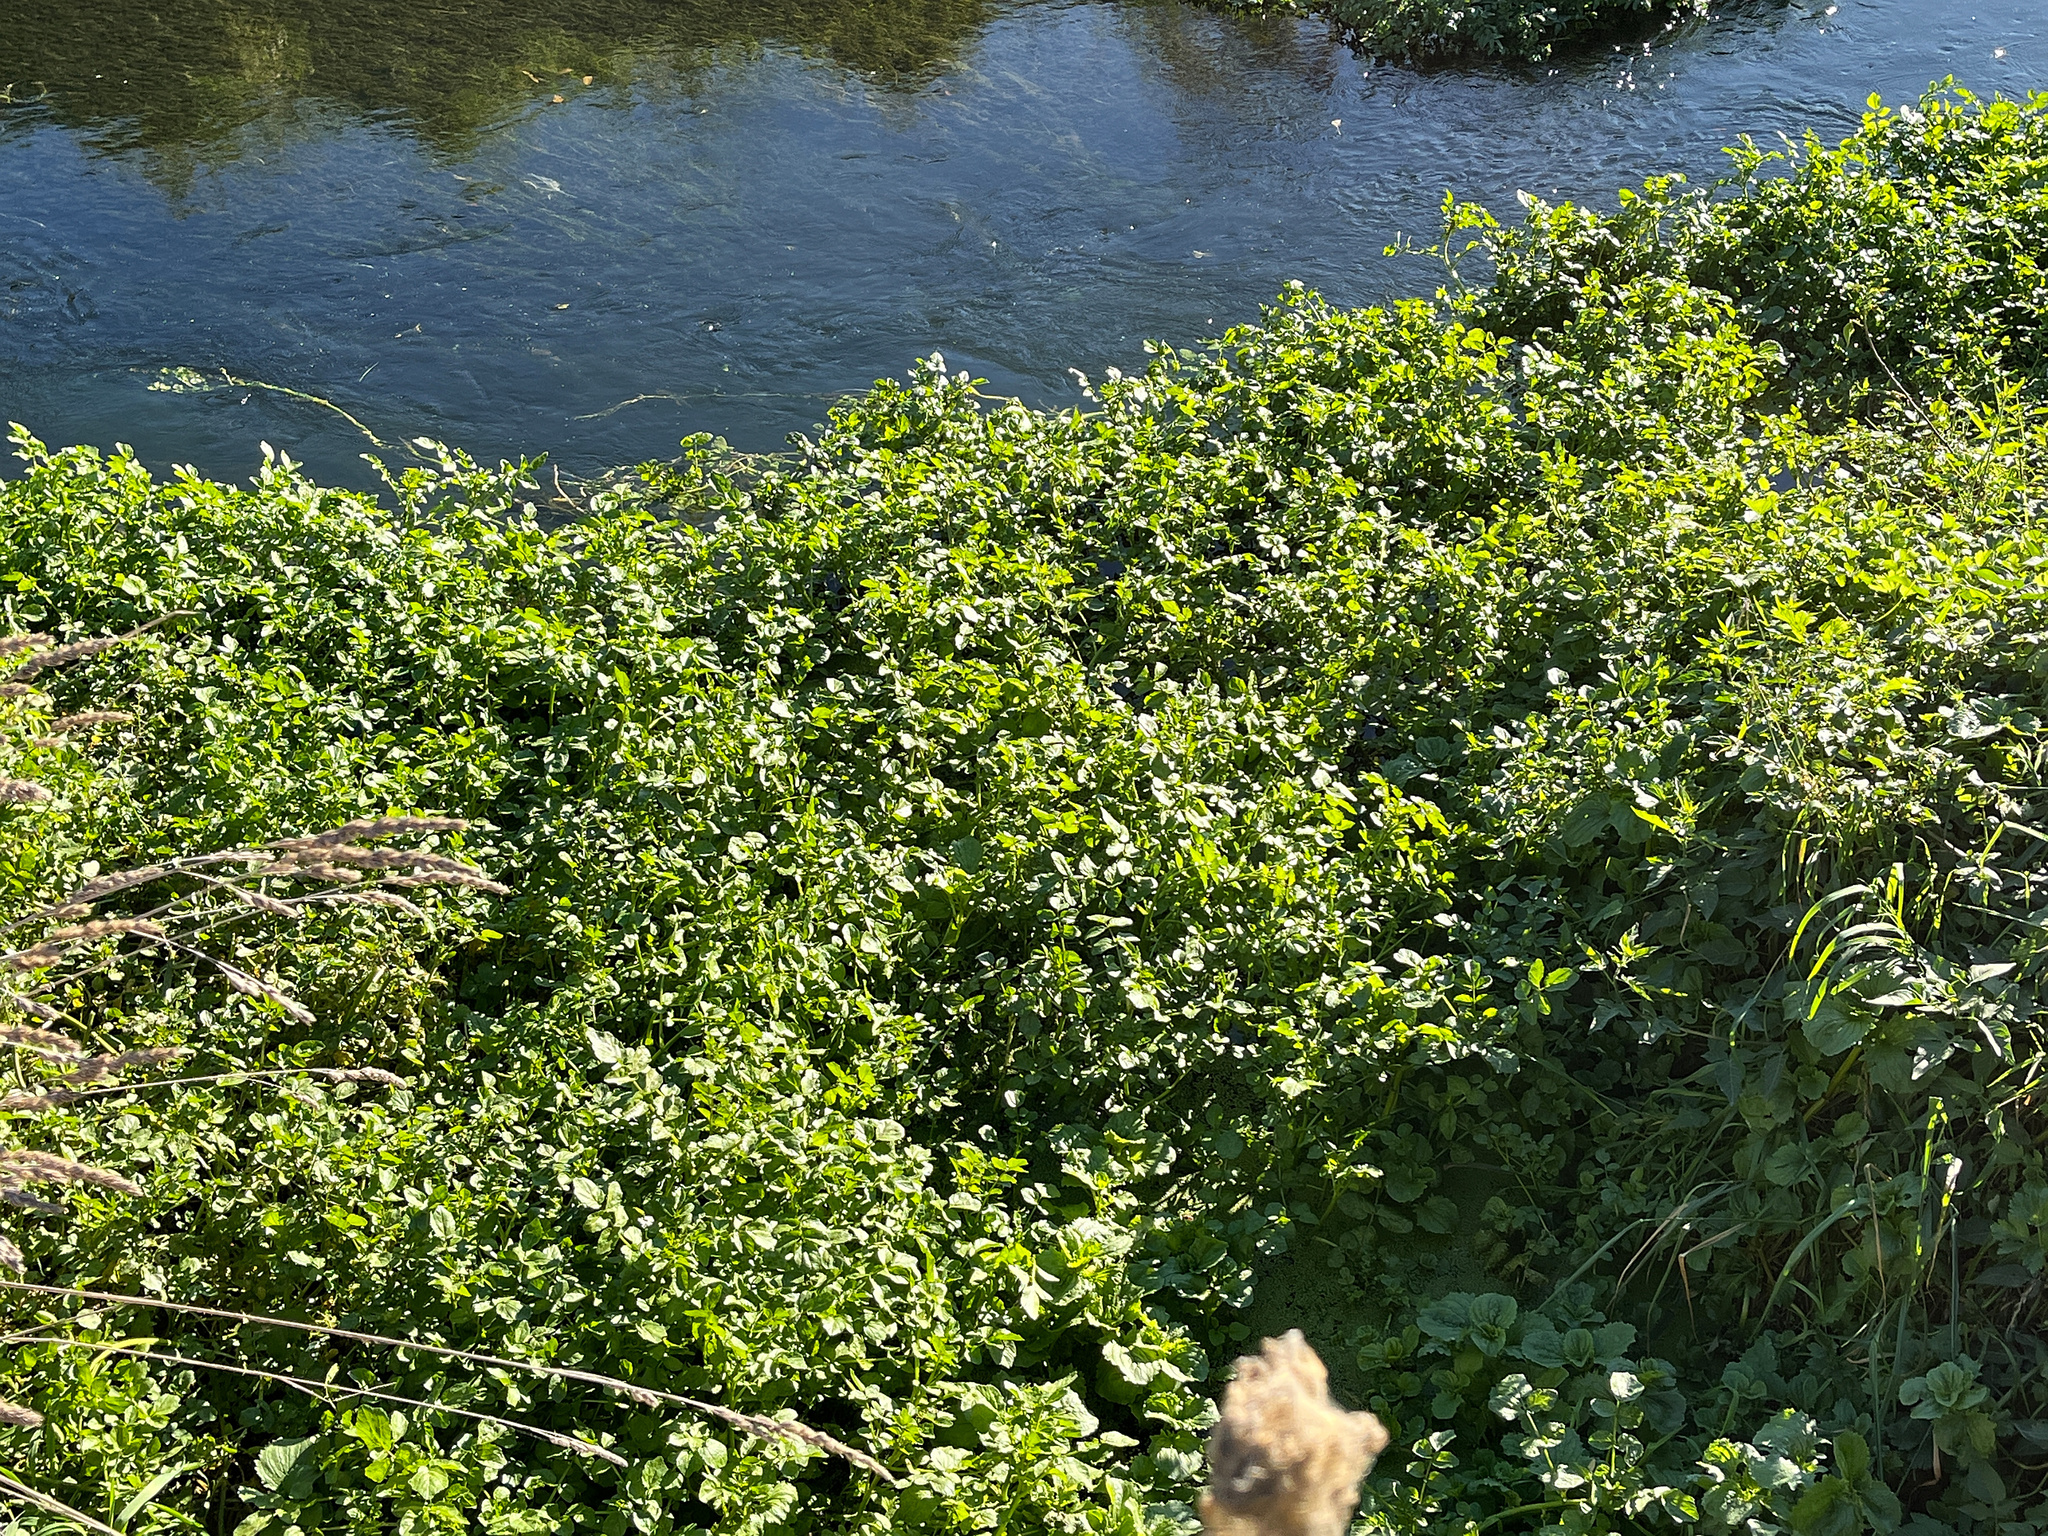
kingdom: Plantae
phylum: Tracheophyta
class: Magnoliopsida
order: Brassicales
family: Brassicaceae
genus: Nasturtium
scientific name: Nasturtium officinale
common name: Watercress
